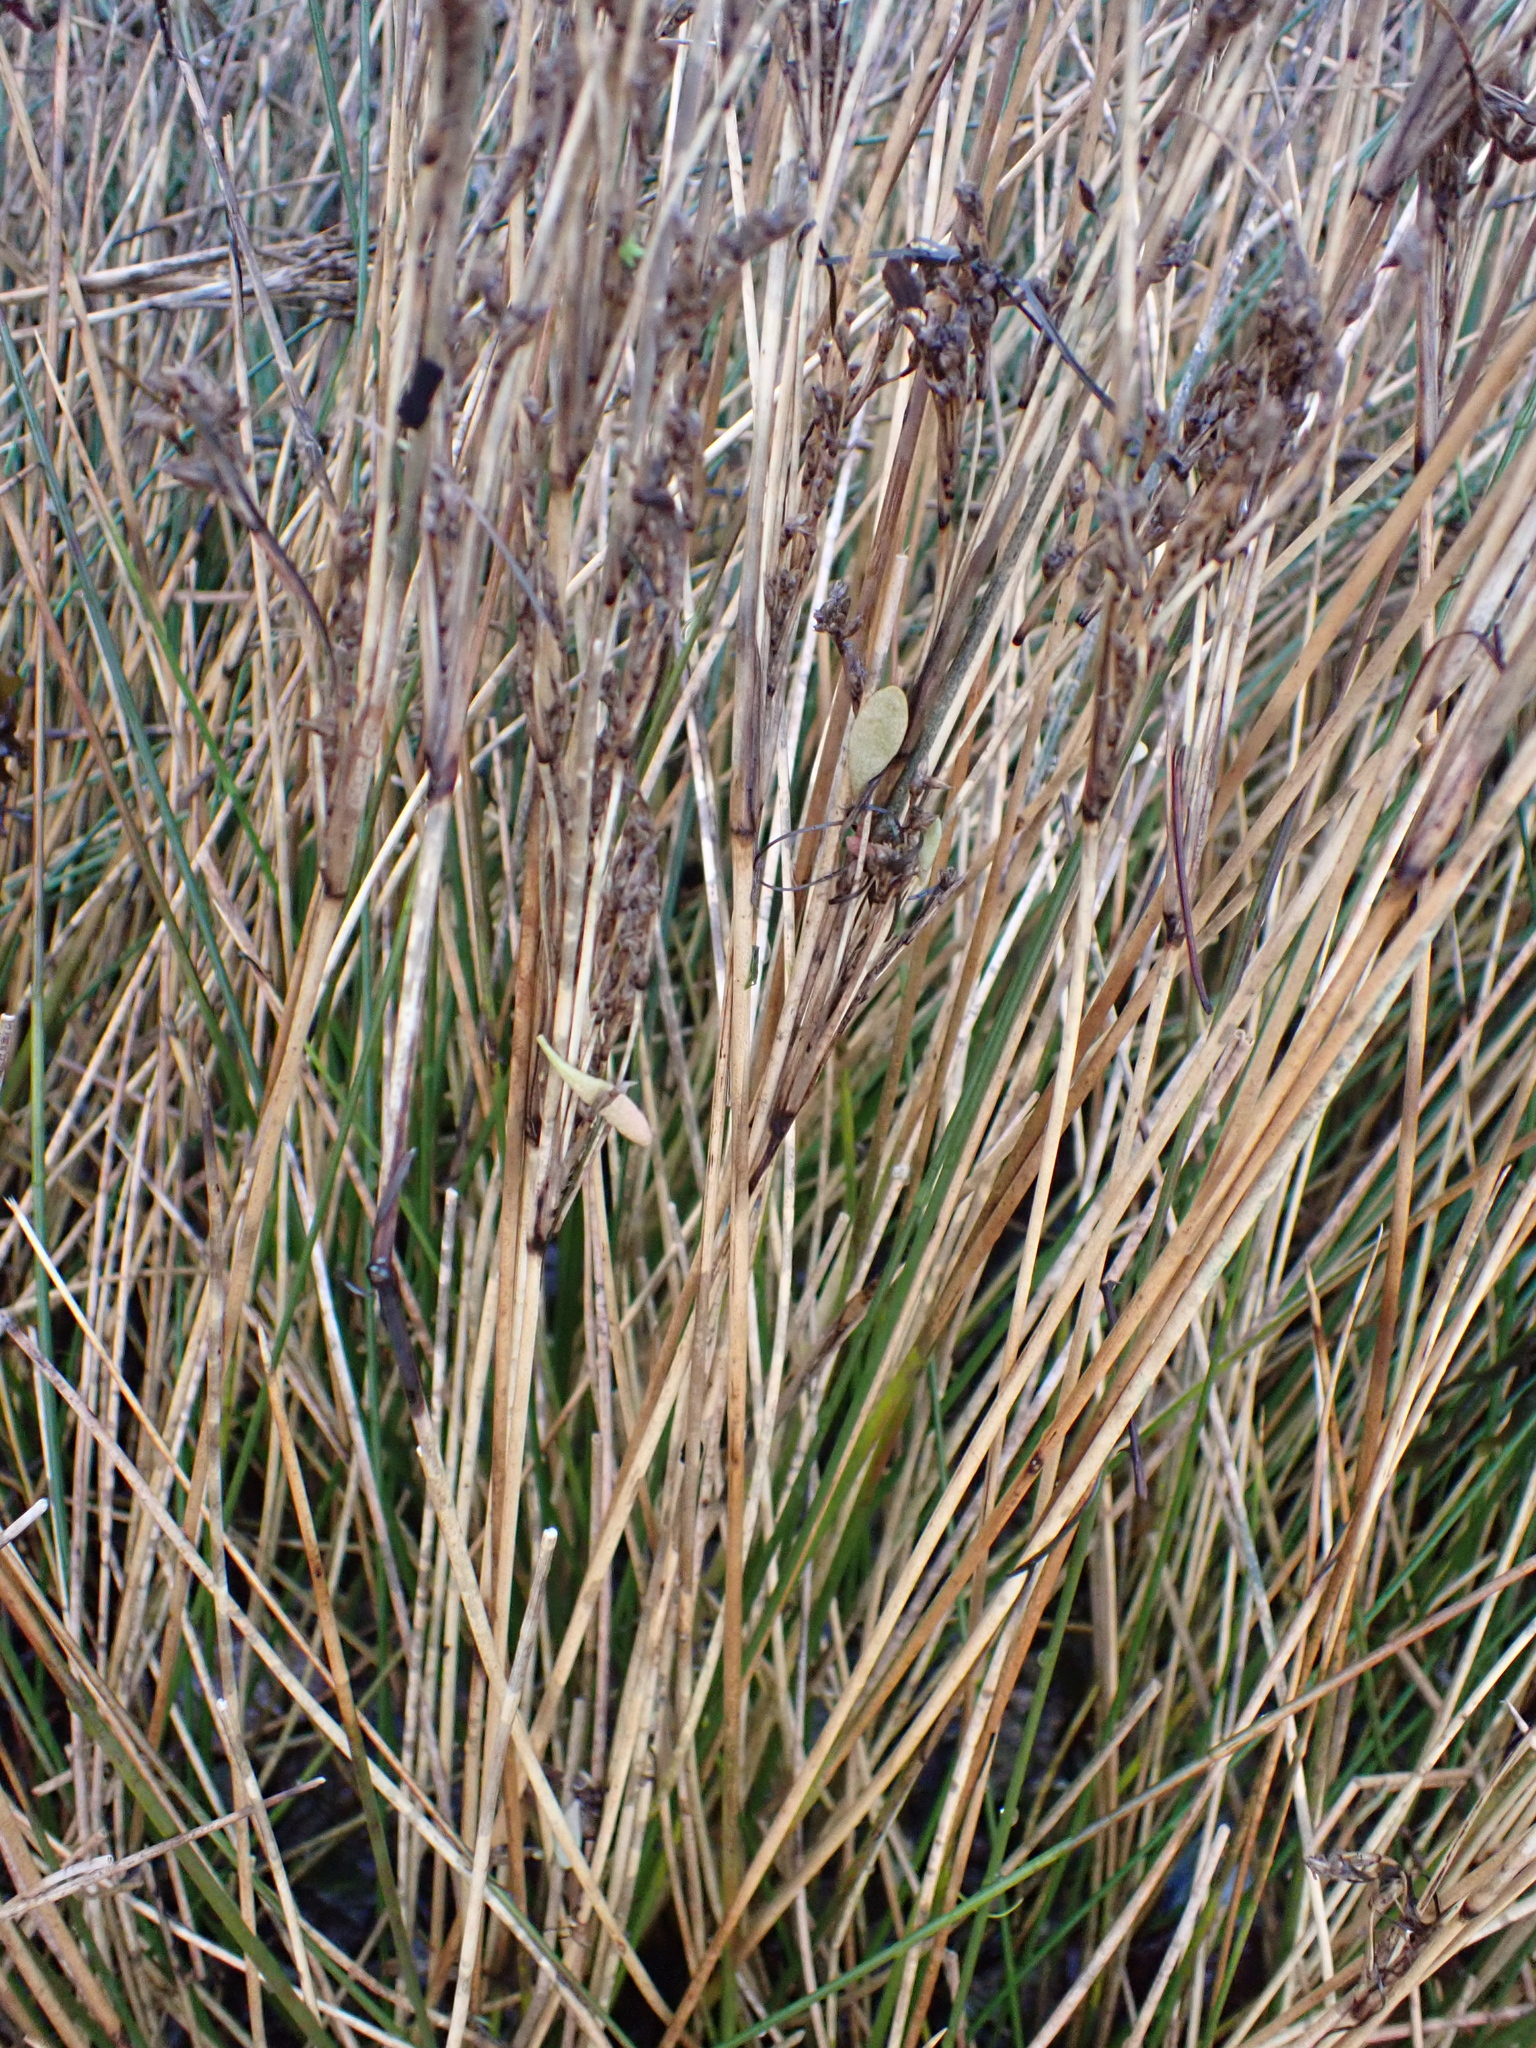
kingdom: Plantae
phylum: Tracheophyta
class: Liliopsida
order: Poales
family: Juncaceae
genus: Juncus
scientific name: Juncus maritimus
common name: Sea rush
